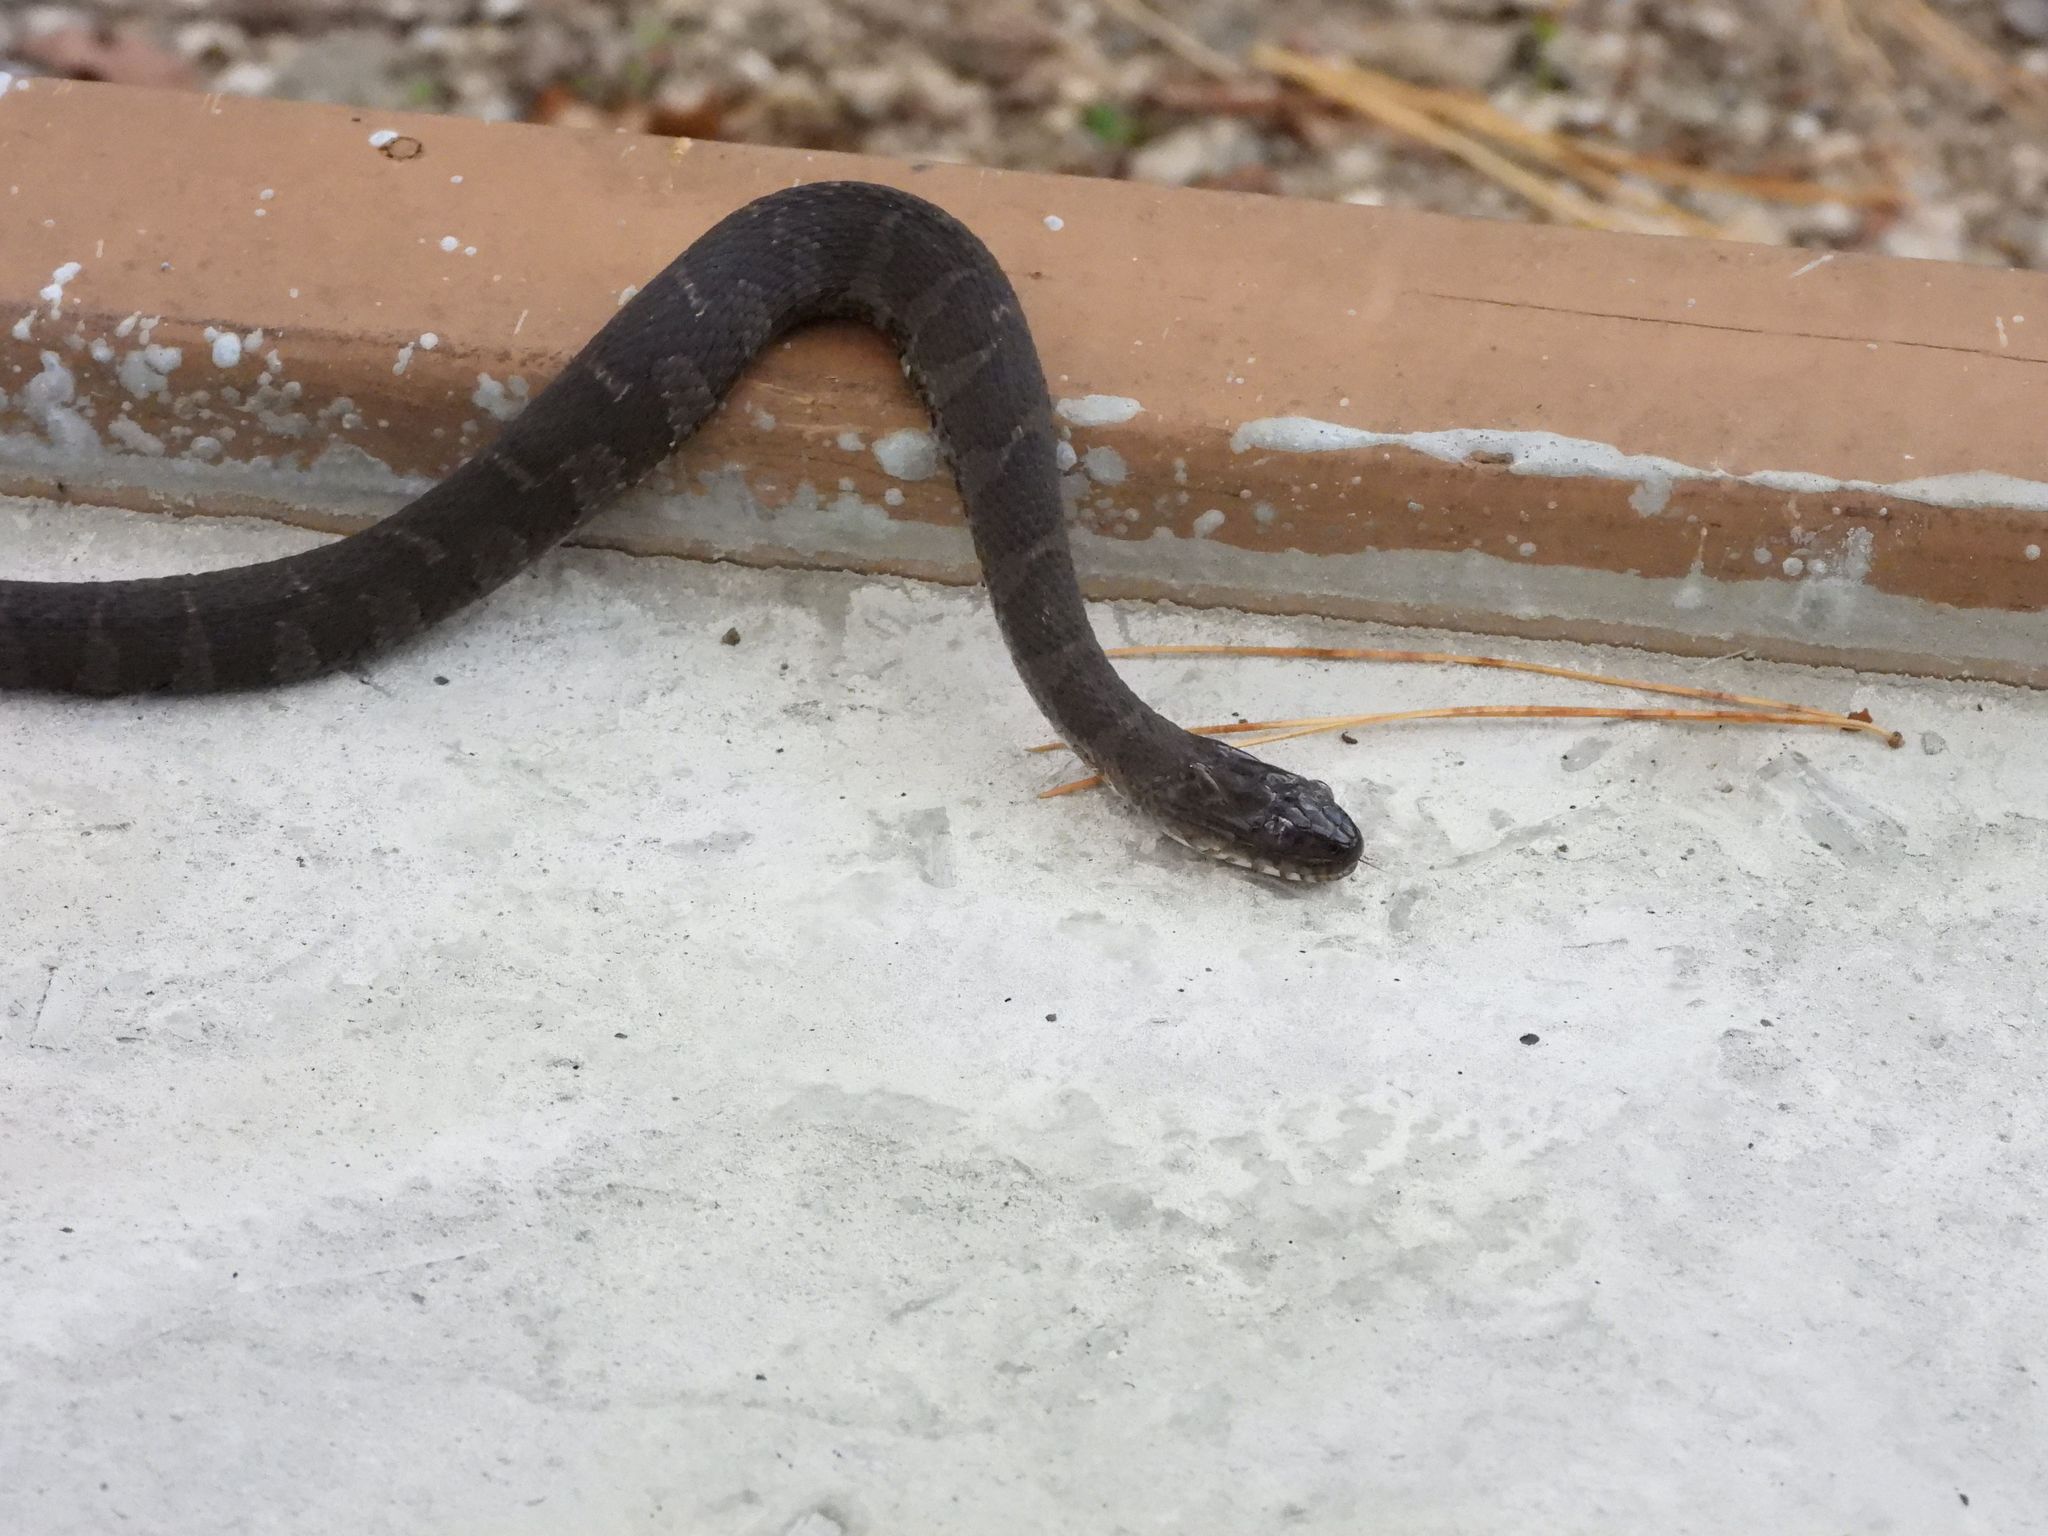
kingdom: Animalia
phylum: Chordata
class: Squamata
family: Colubridae
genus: Nerodia
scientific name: Nerodia sipedon
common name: Northern water snake
